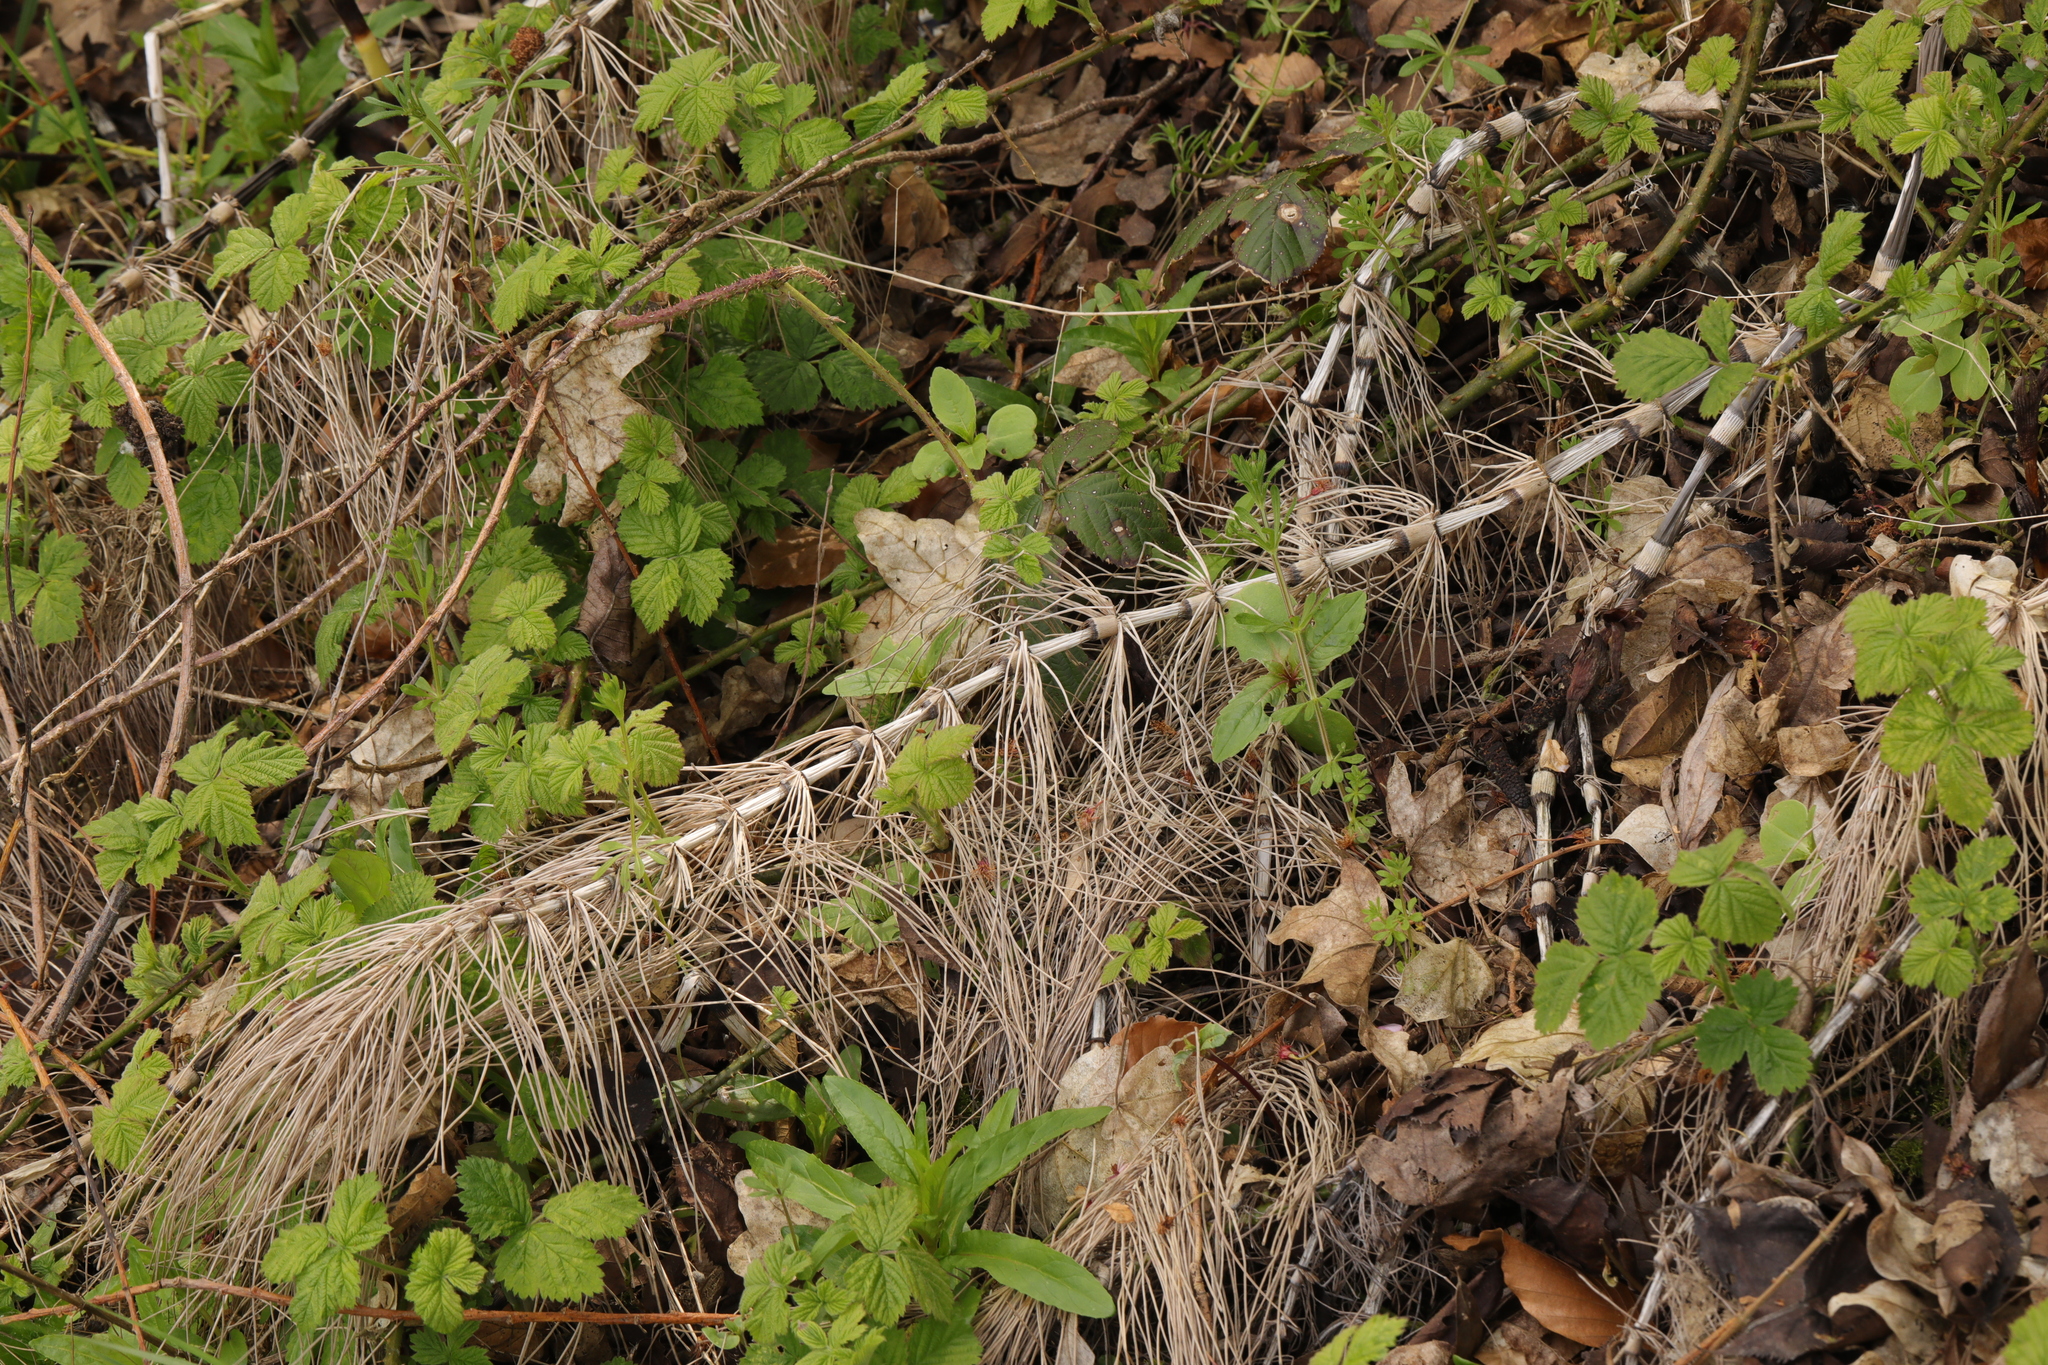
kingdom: Plantae
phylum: Tracheophyta
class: Polypodiopsida
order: Equisetales
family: Equisetaceae
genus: Equisetum
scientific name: Equisetum telmateia
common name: Great horsetail
